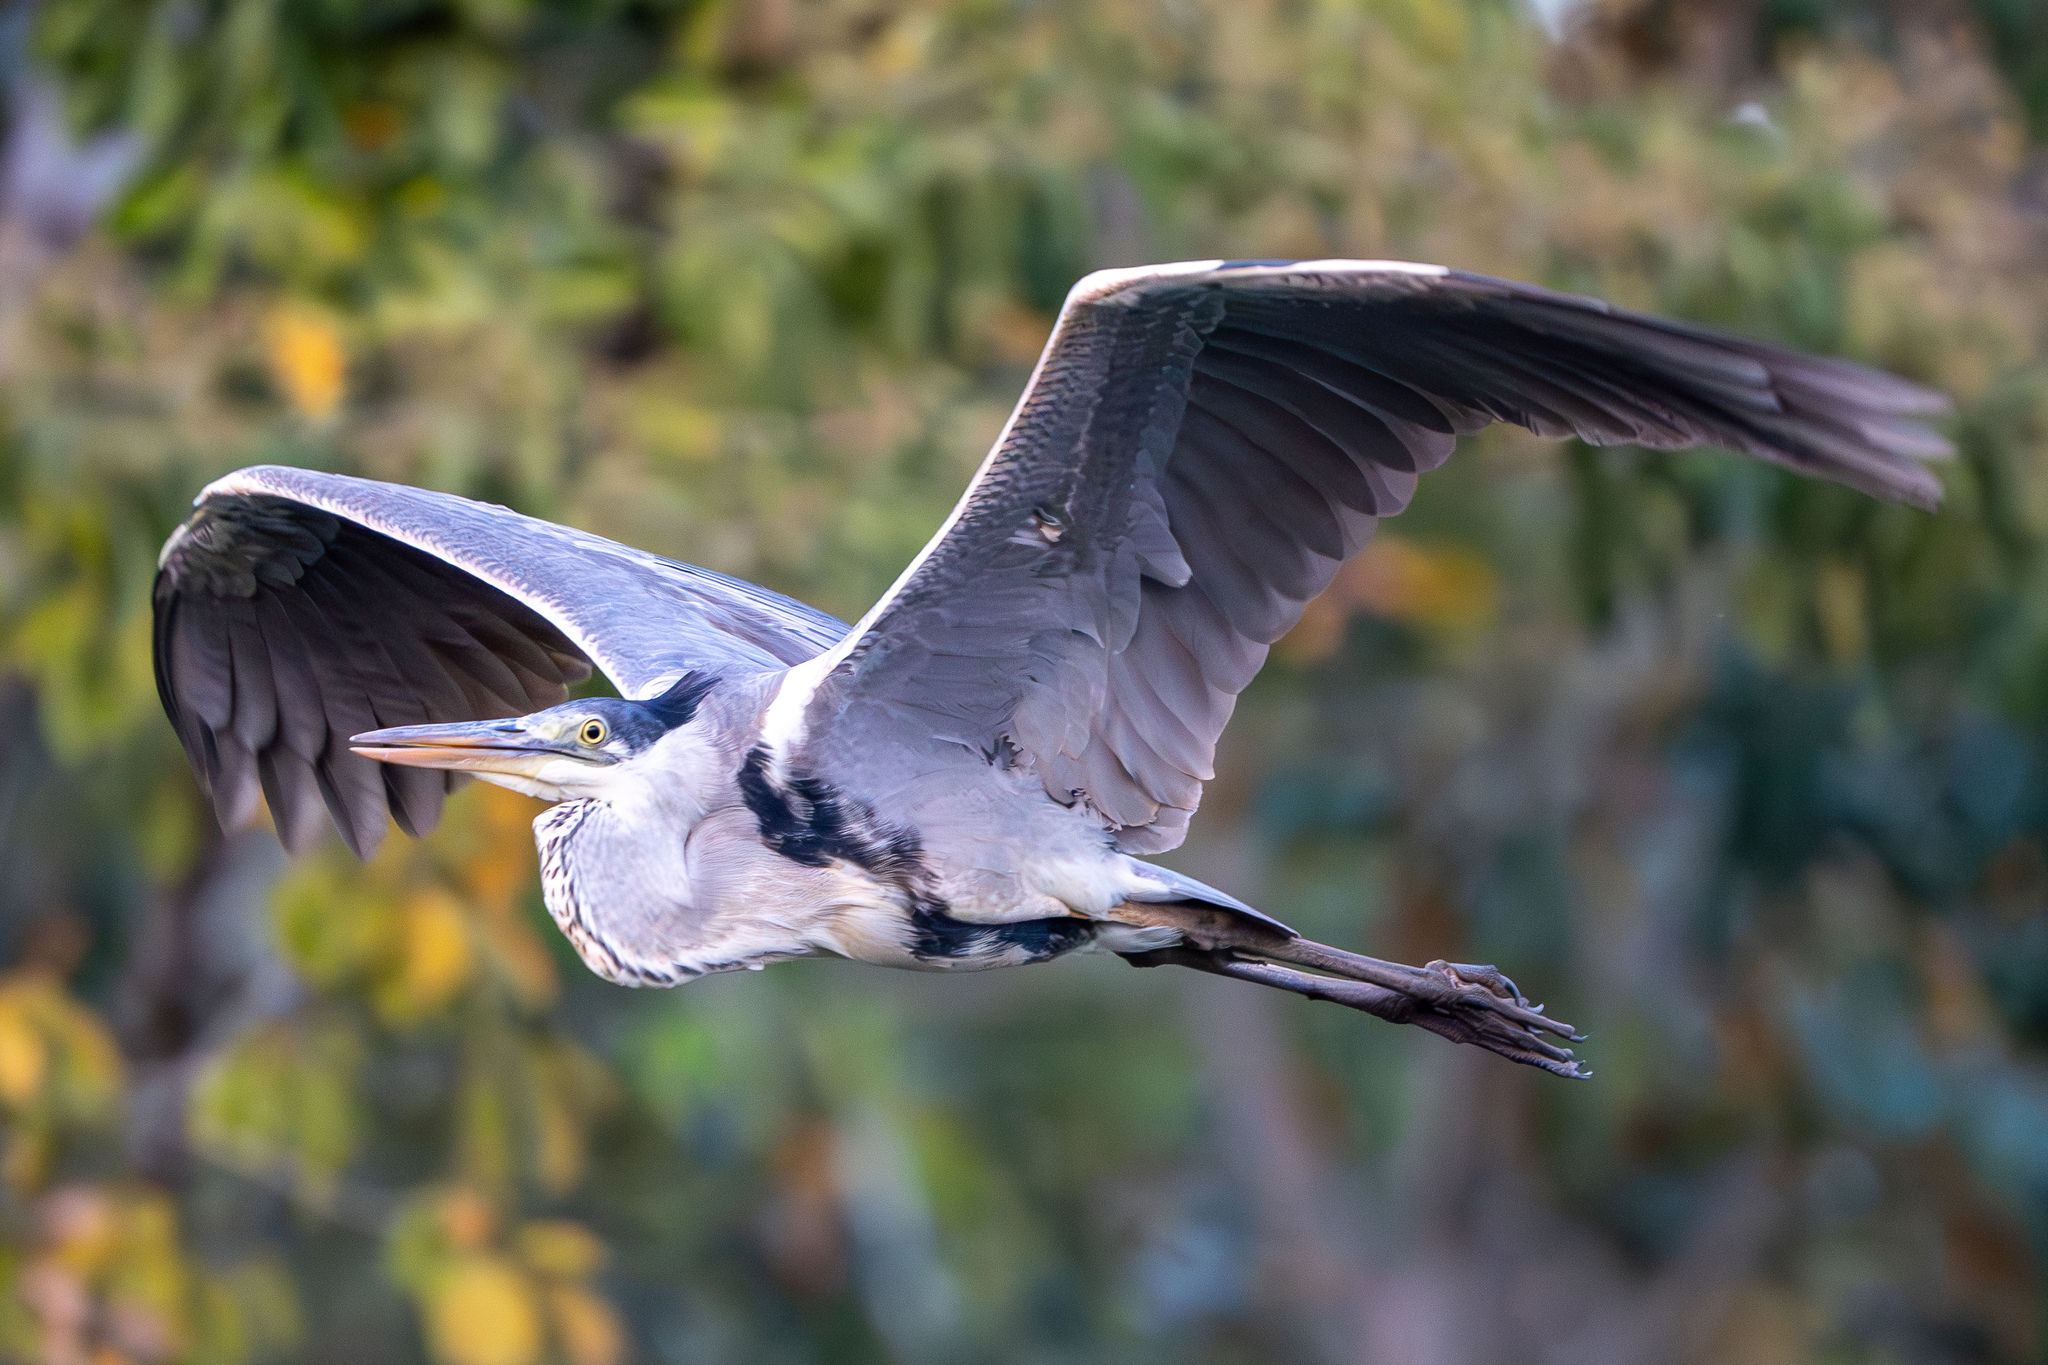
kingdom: Animalia
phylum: Chordata
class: Aves
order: Pelecaniformes
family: Ardeidae
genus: Ardea
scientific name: Ardea herodias
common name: Great blue heron
